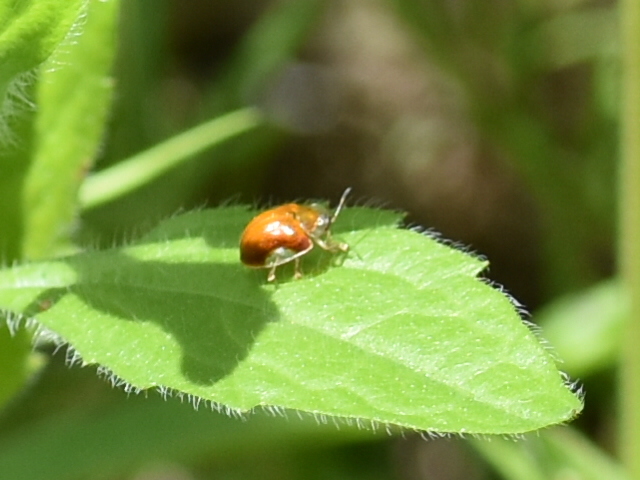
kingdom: Animalia
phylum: Arthropoda
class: Insecta
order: Coleoptera
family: Chrysomelidae
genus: Charidotella
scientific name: Charidotella purpurata
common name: Small orange tortoise beetle
